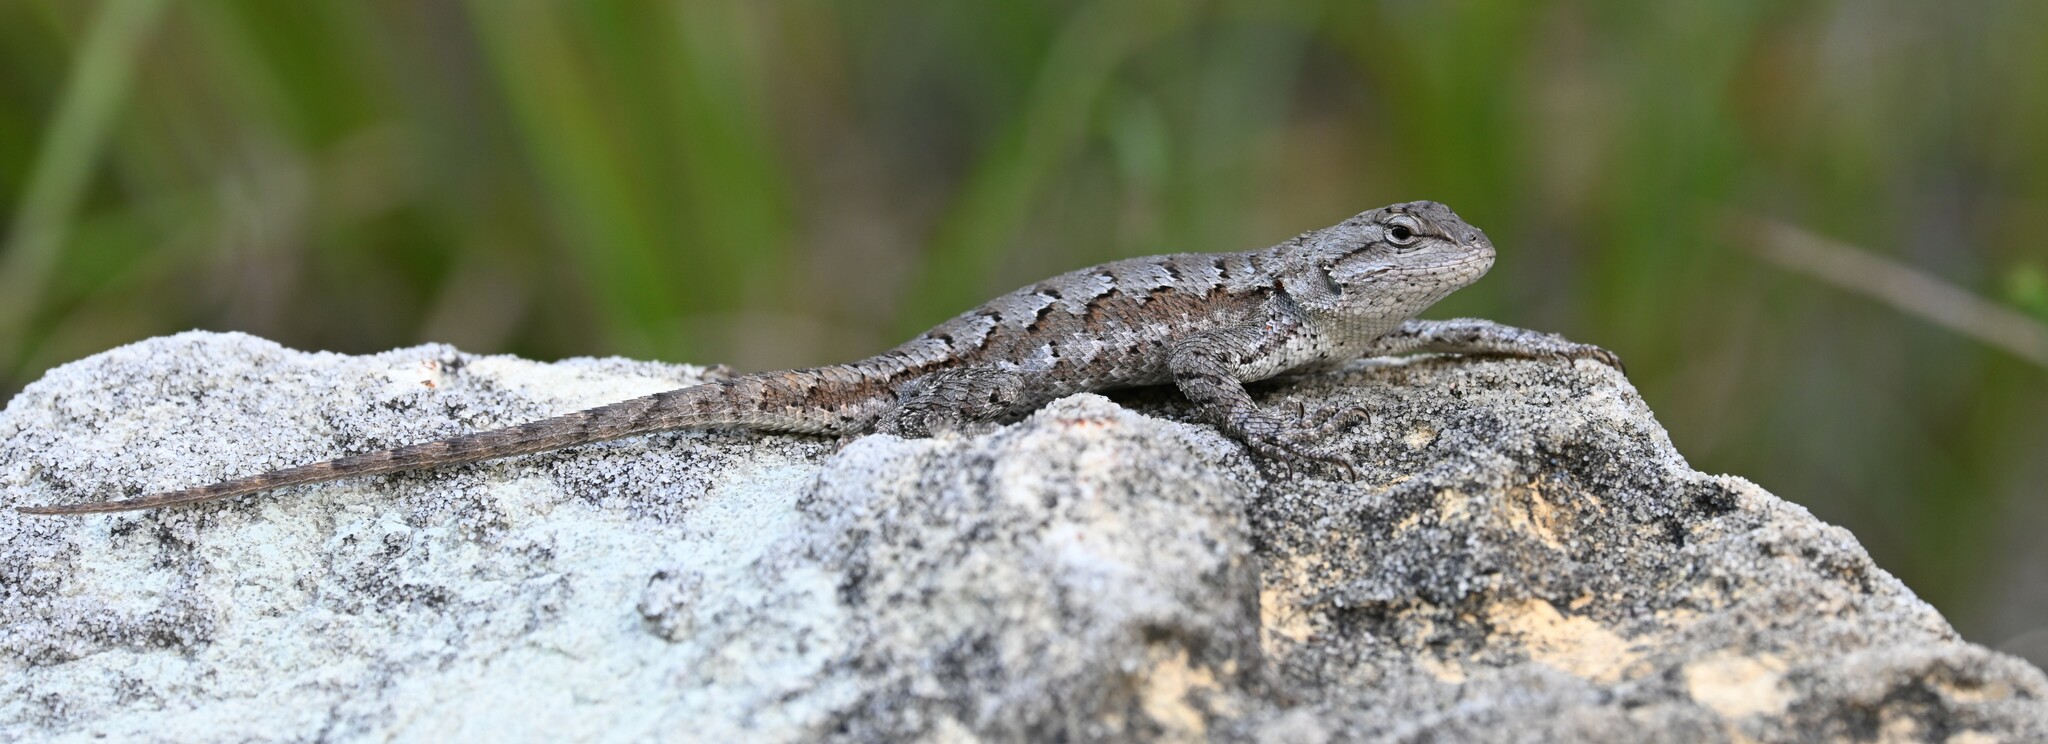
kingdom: Animalia
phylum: Chordata
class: Squamata
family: Phrynosomatidae
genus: Sceloporus
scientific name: Sceloporus consobrinus
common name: Southern prairie lizard
